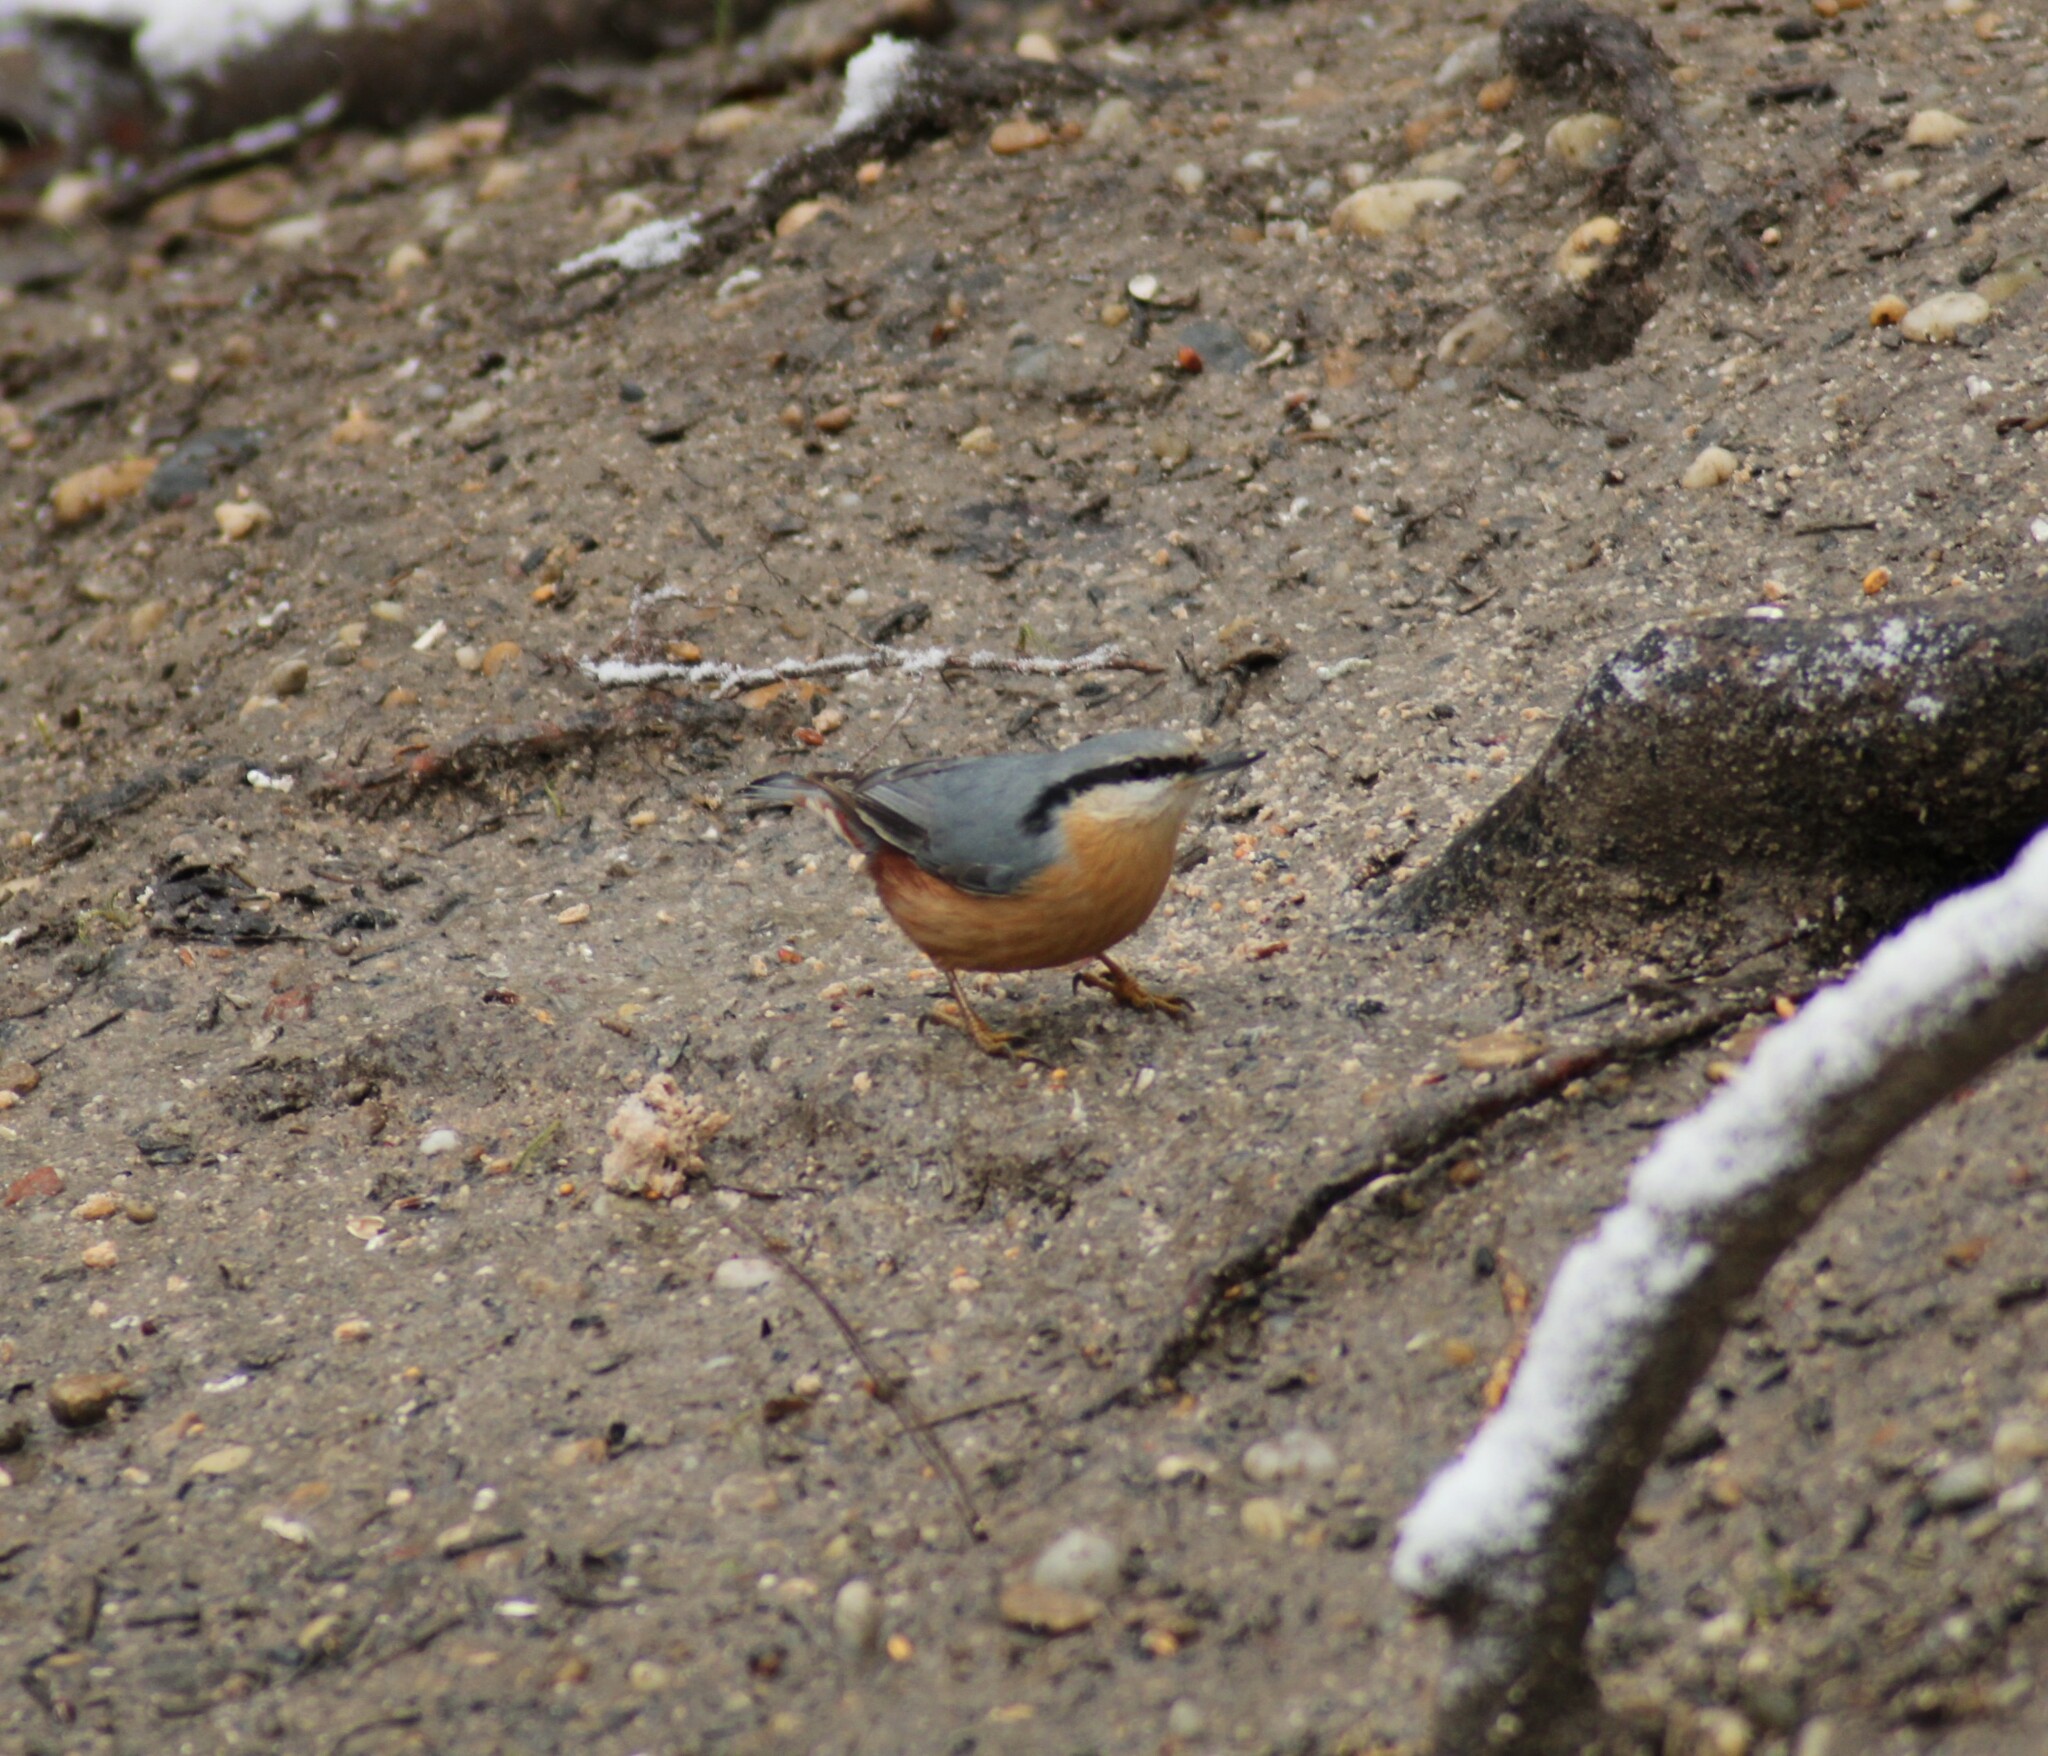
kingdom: Animalia
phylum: Chordata
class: Aves
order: Passeriformes
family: Sittidae
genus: Sitta
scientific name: Sitta europaea
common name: Eurasian nuthatch
